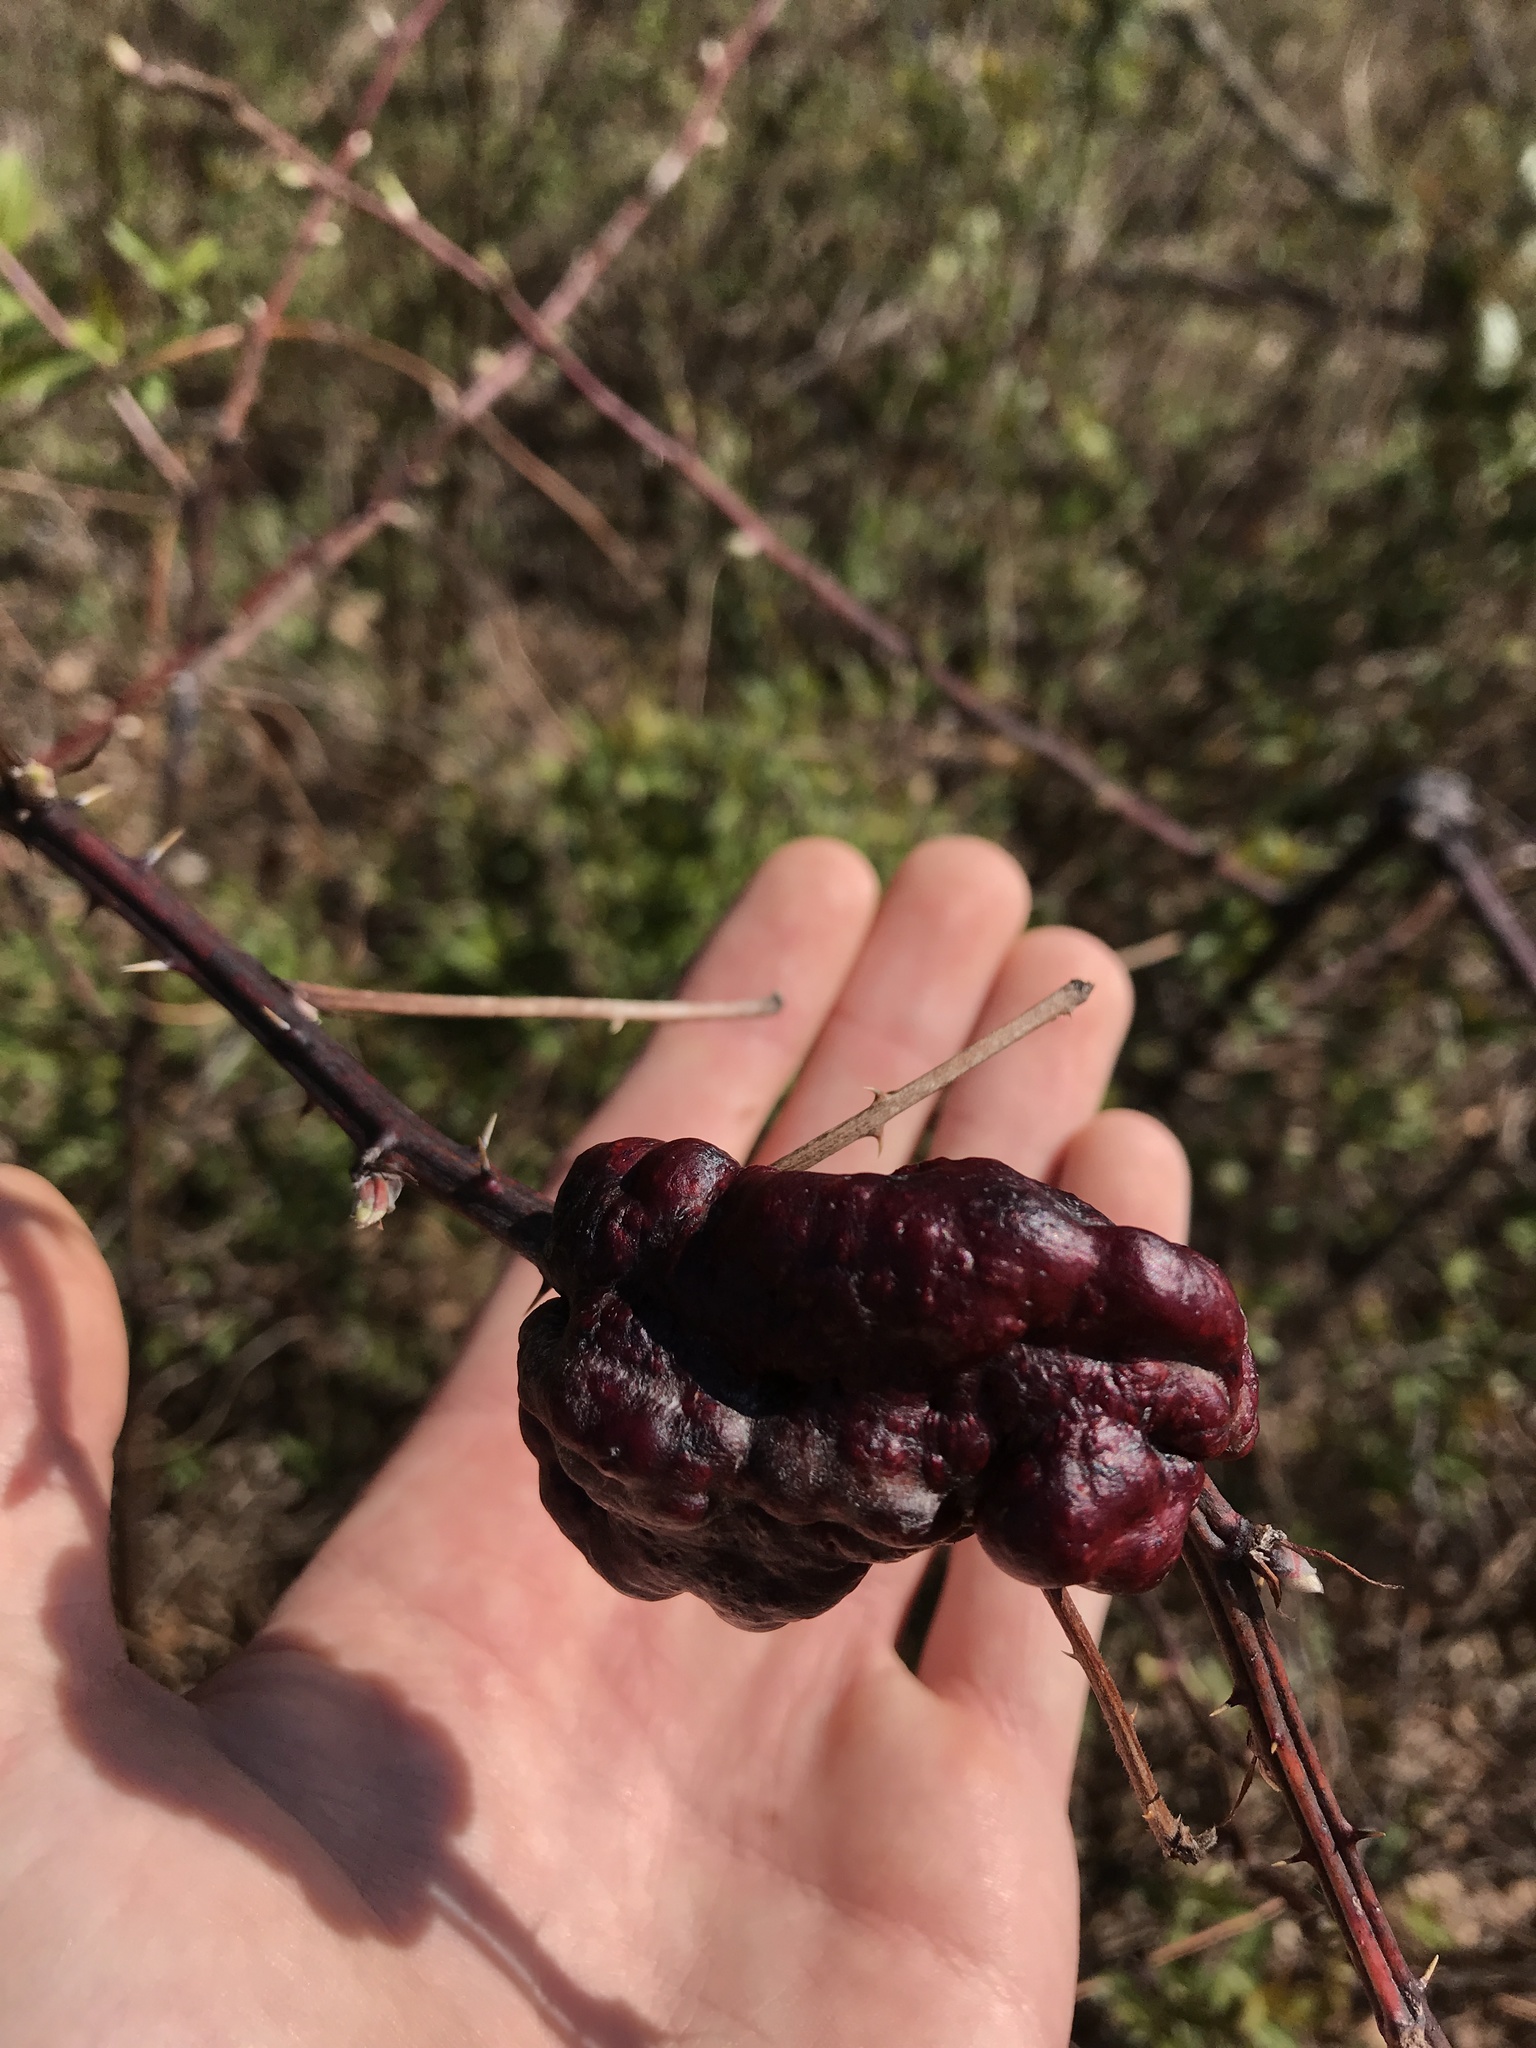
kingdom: Animalia
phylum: Arthropoda
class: Insecta
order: Hymenoptera
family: Cynipidae
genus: Diastrophus
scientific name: Diastrophus
